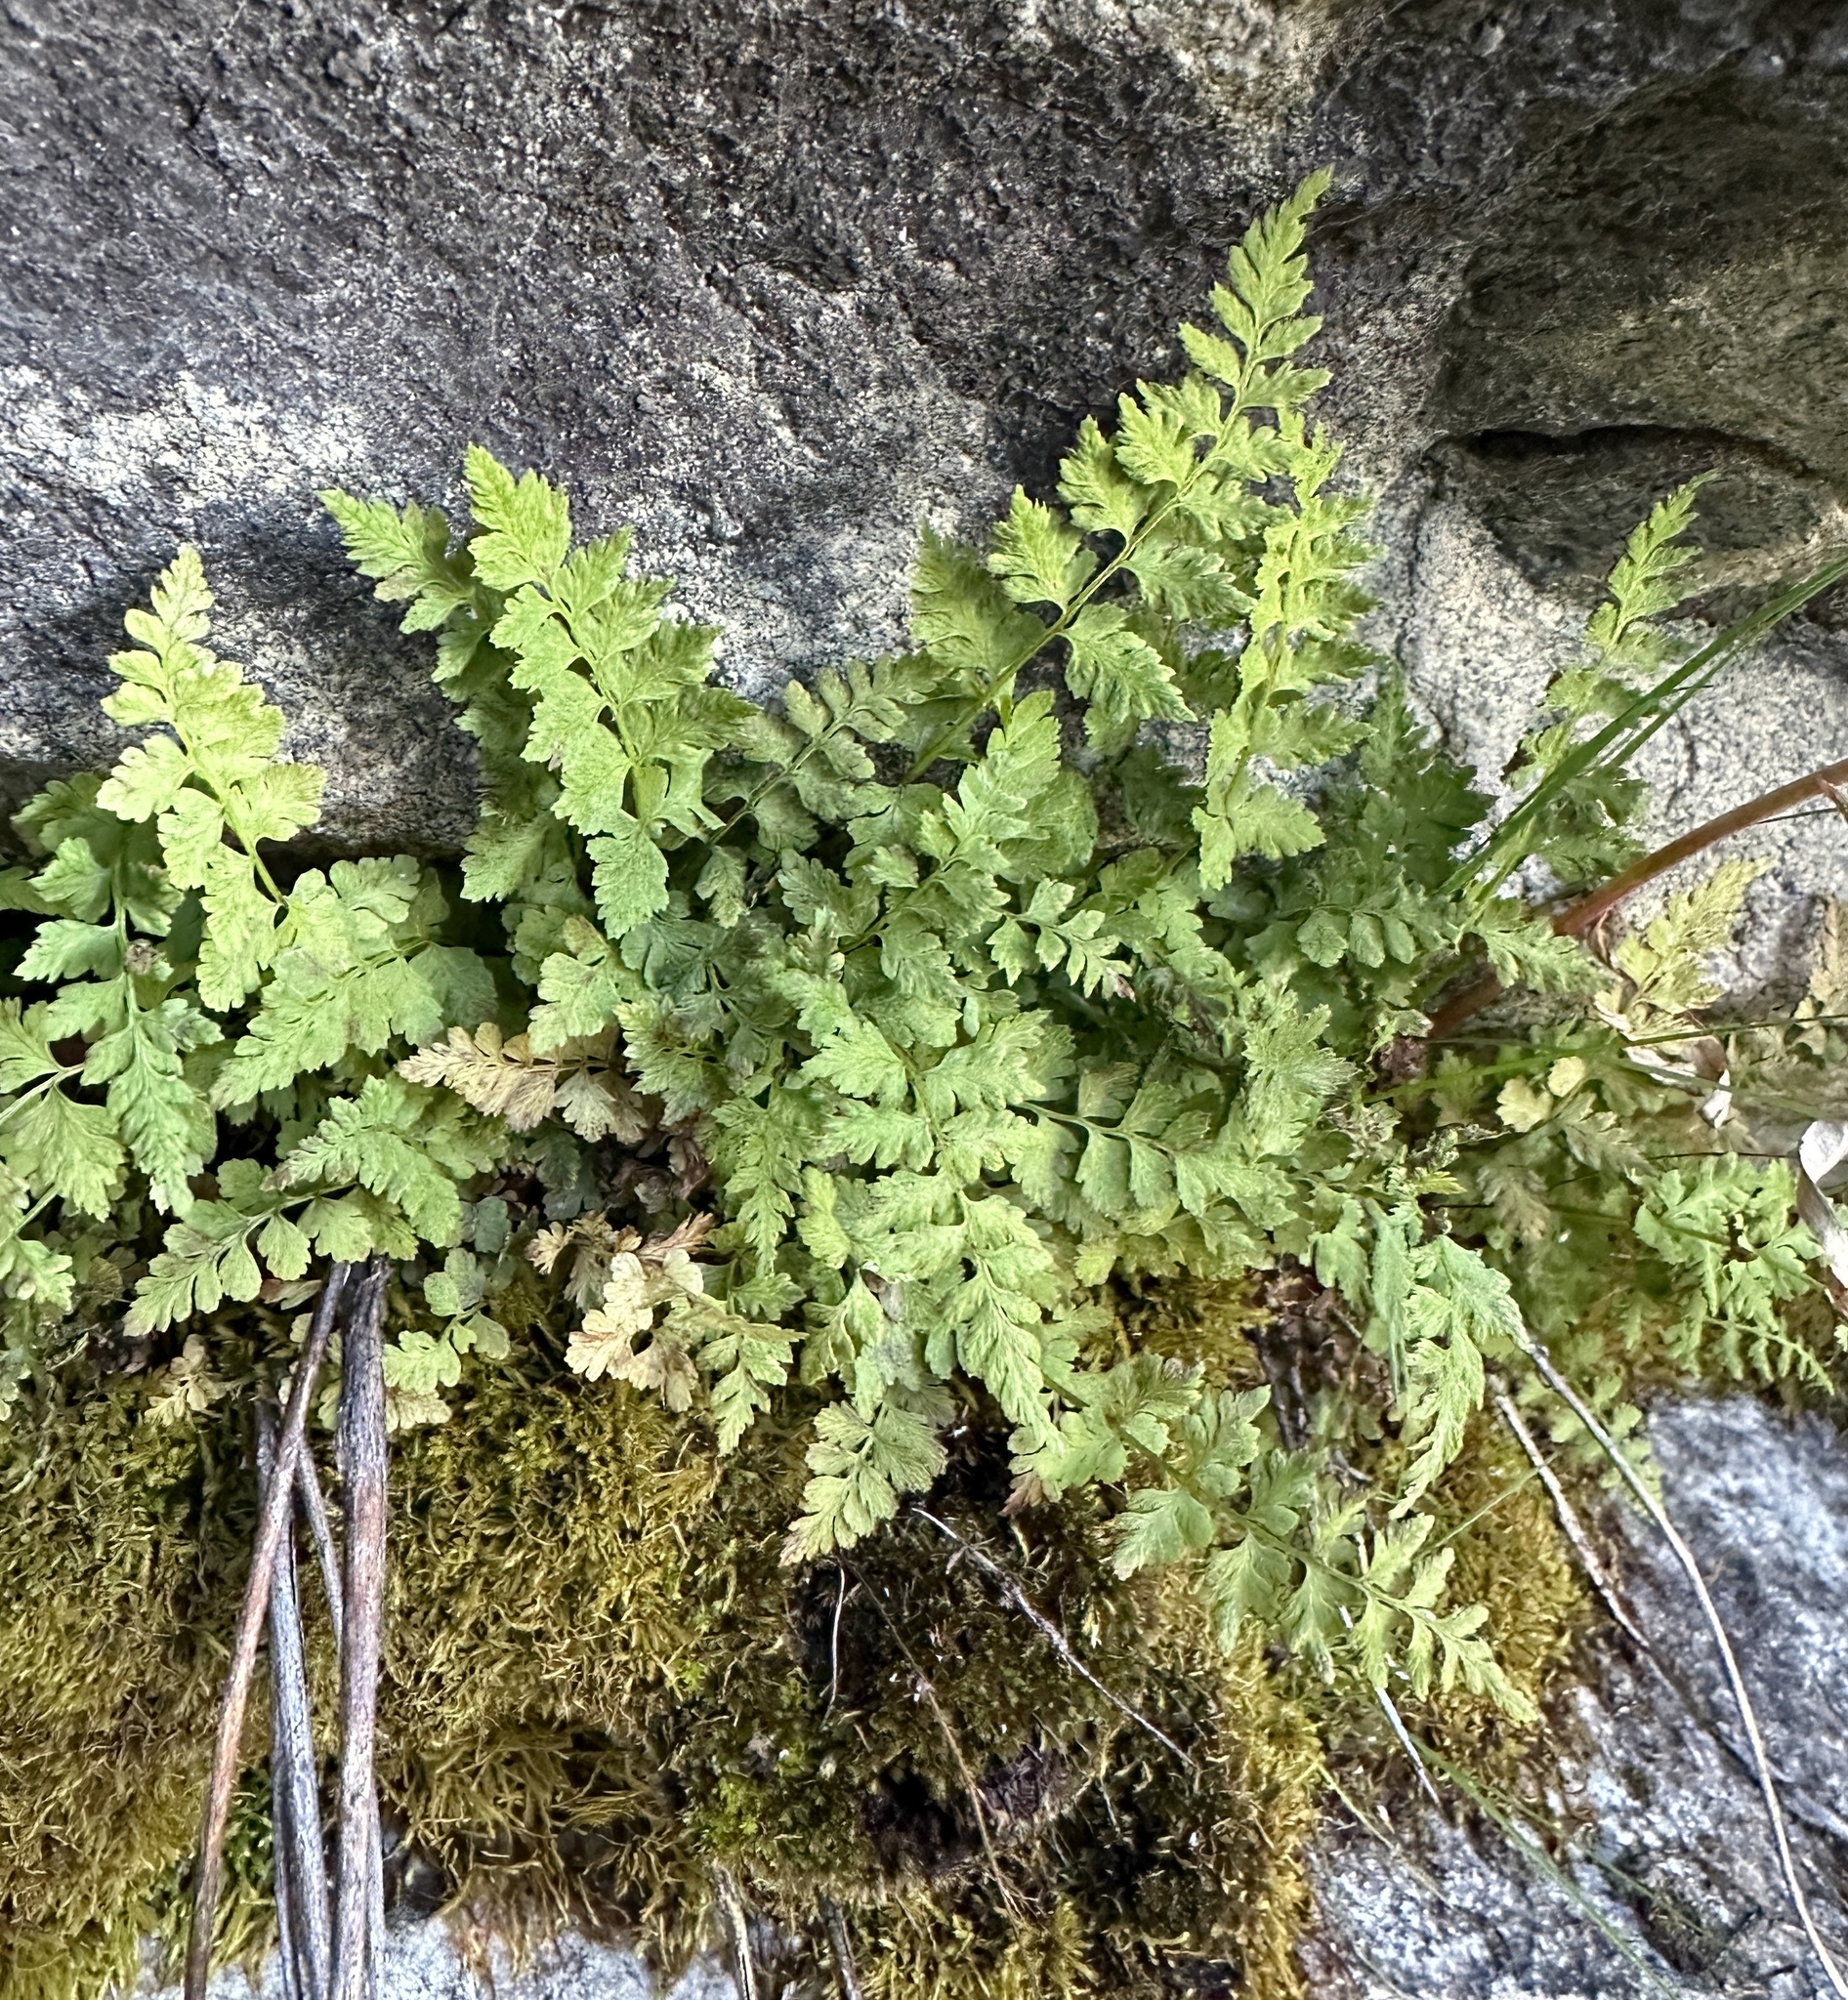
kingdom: Plantae
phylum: Tracheophyta
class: Polypodiopsida
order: Polypodiales
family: Cystopteridaceae
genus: Cystopteris
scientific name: Cystopteris fragilis
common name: Brittle bladder fern
